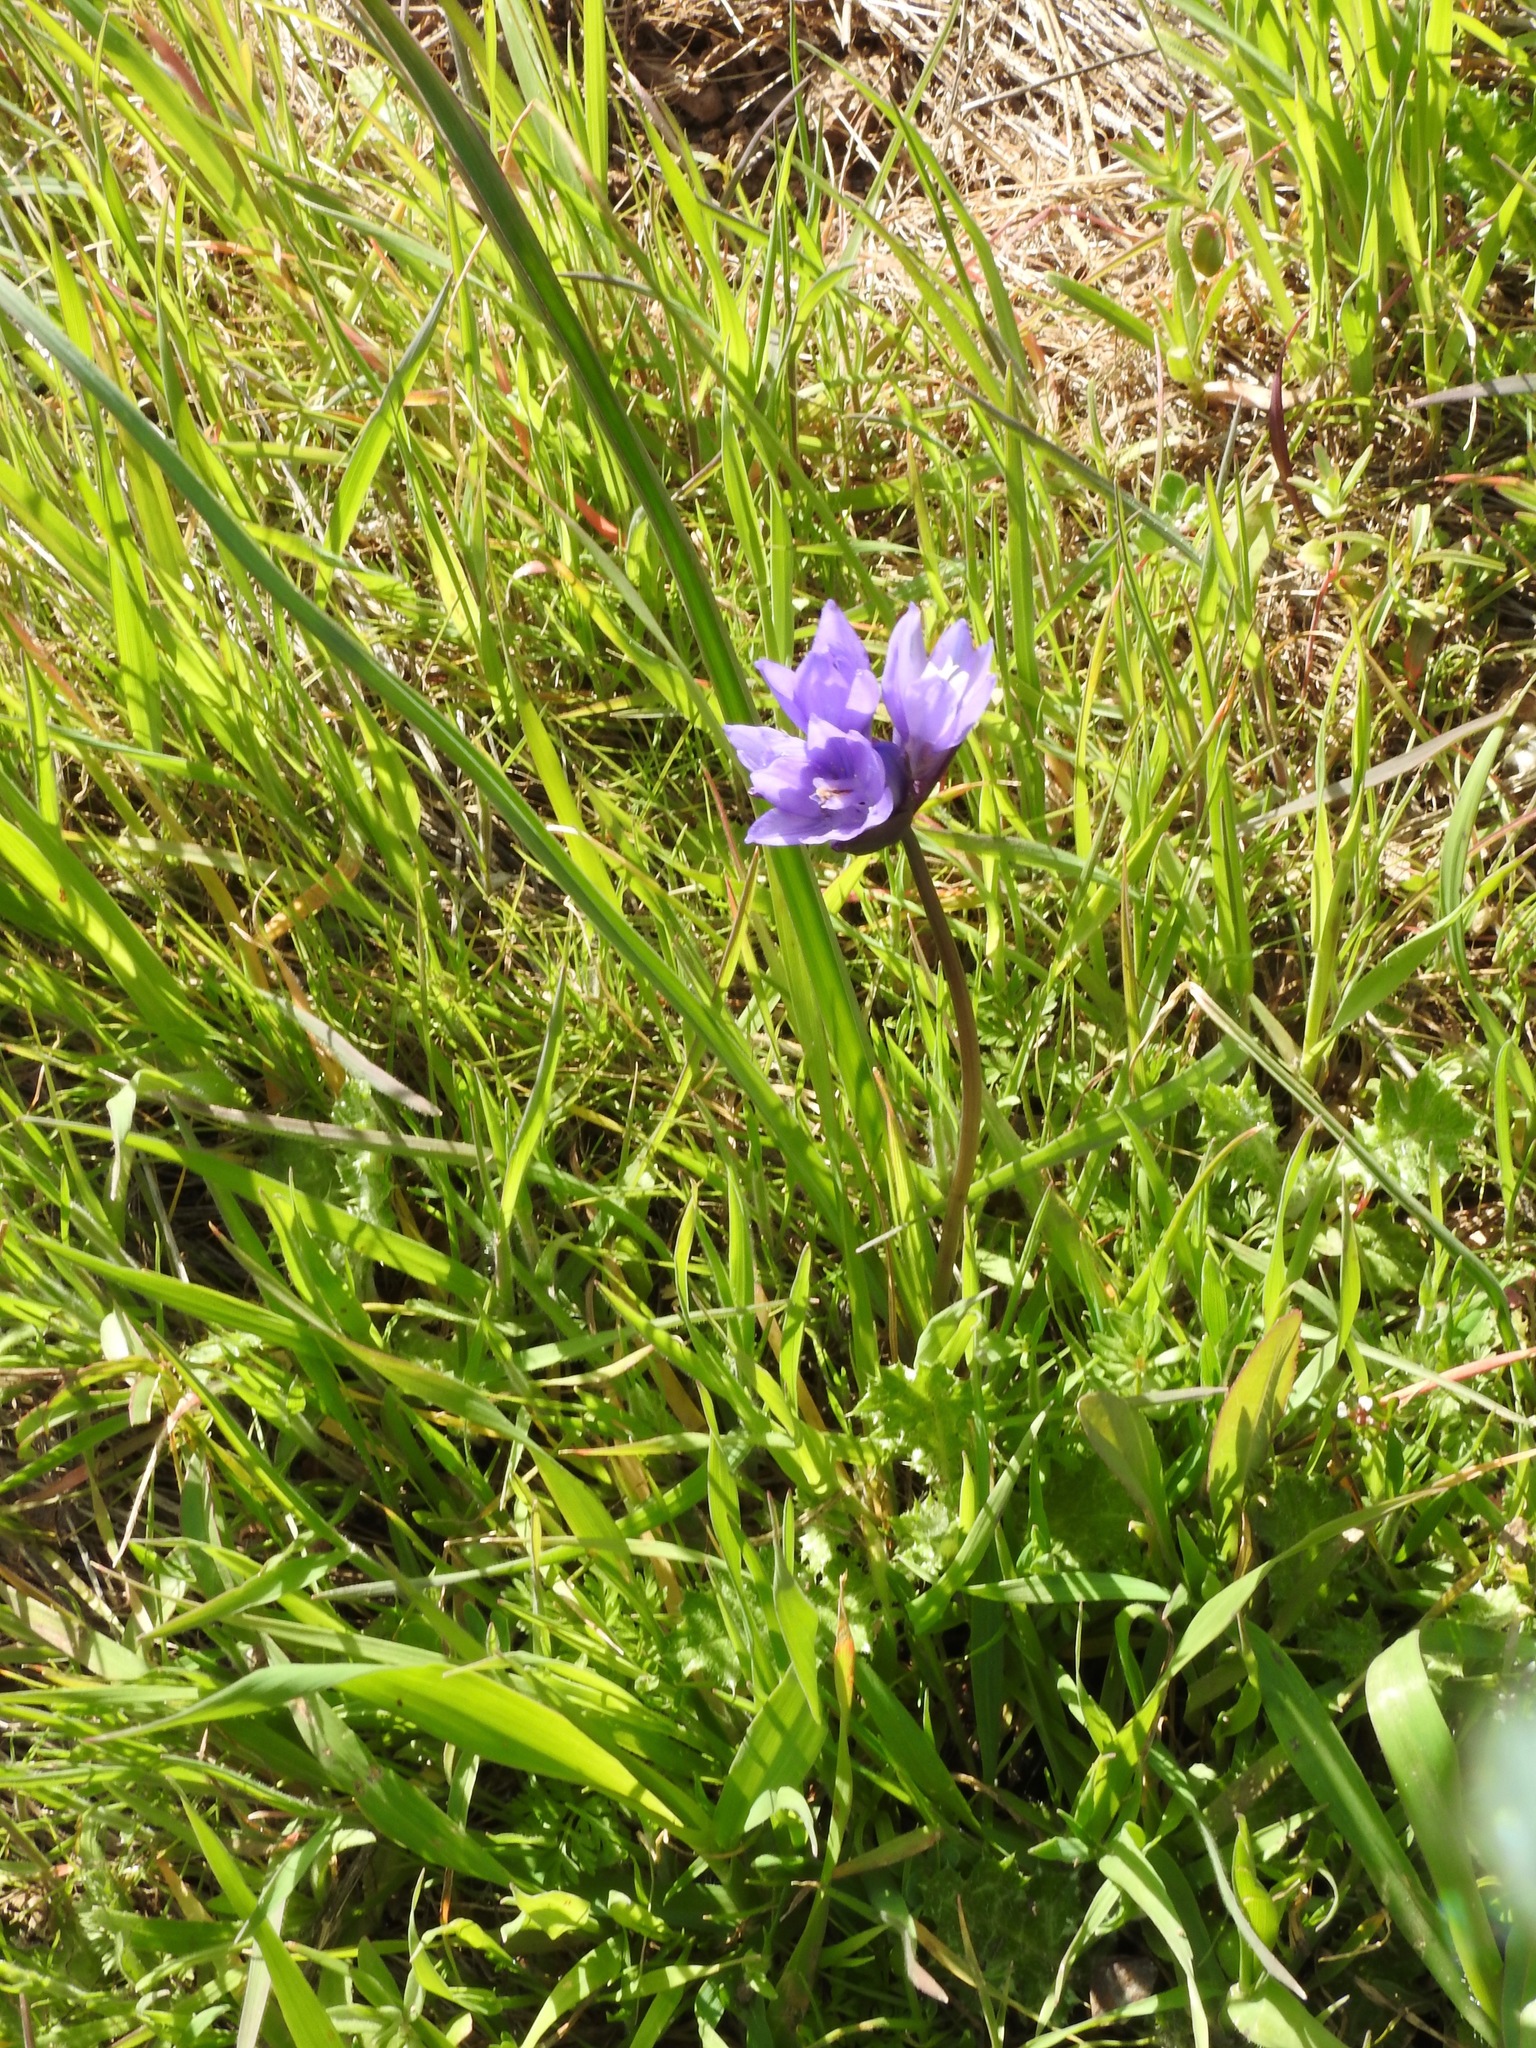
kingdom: Plantae
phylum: Tracheophyta
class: Liliopsida
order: Asparagales
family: Asparagaceae
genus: Dipterostemon
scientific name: Dipterostemon capitatus
